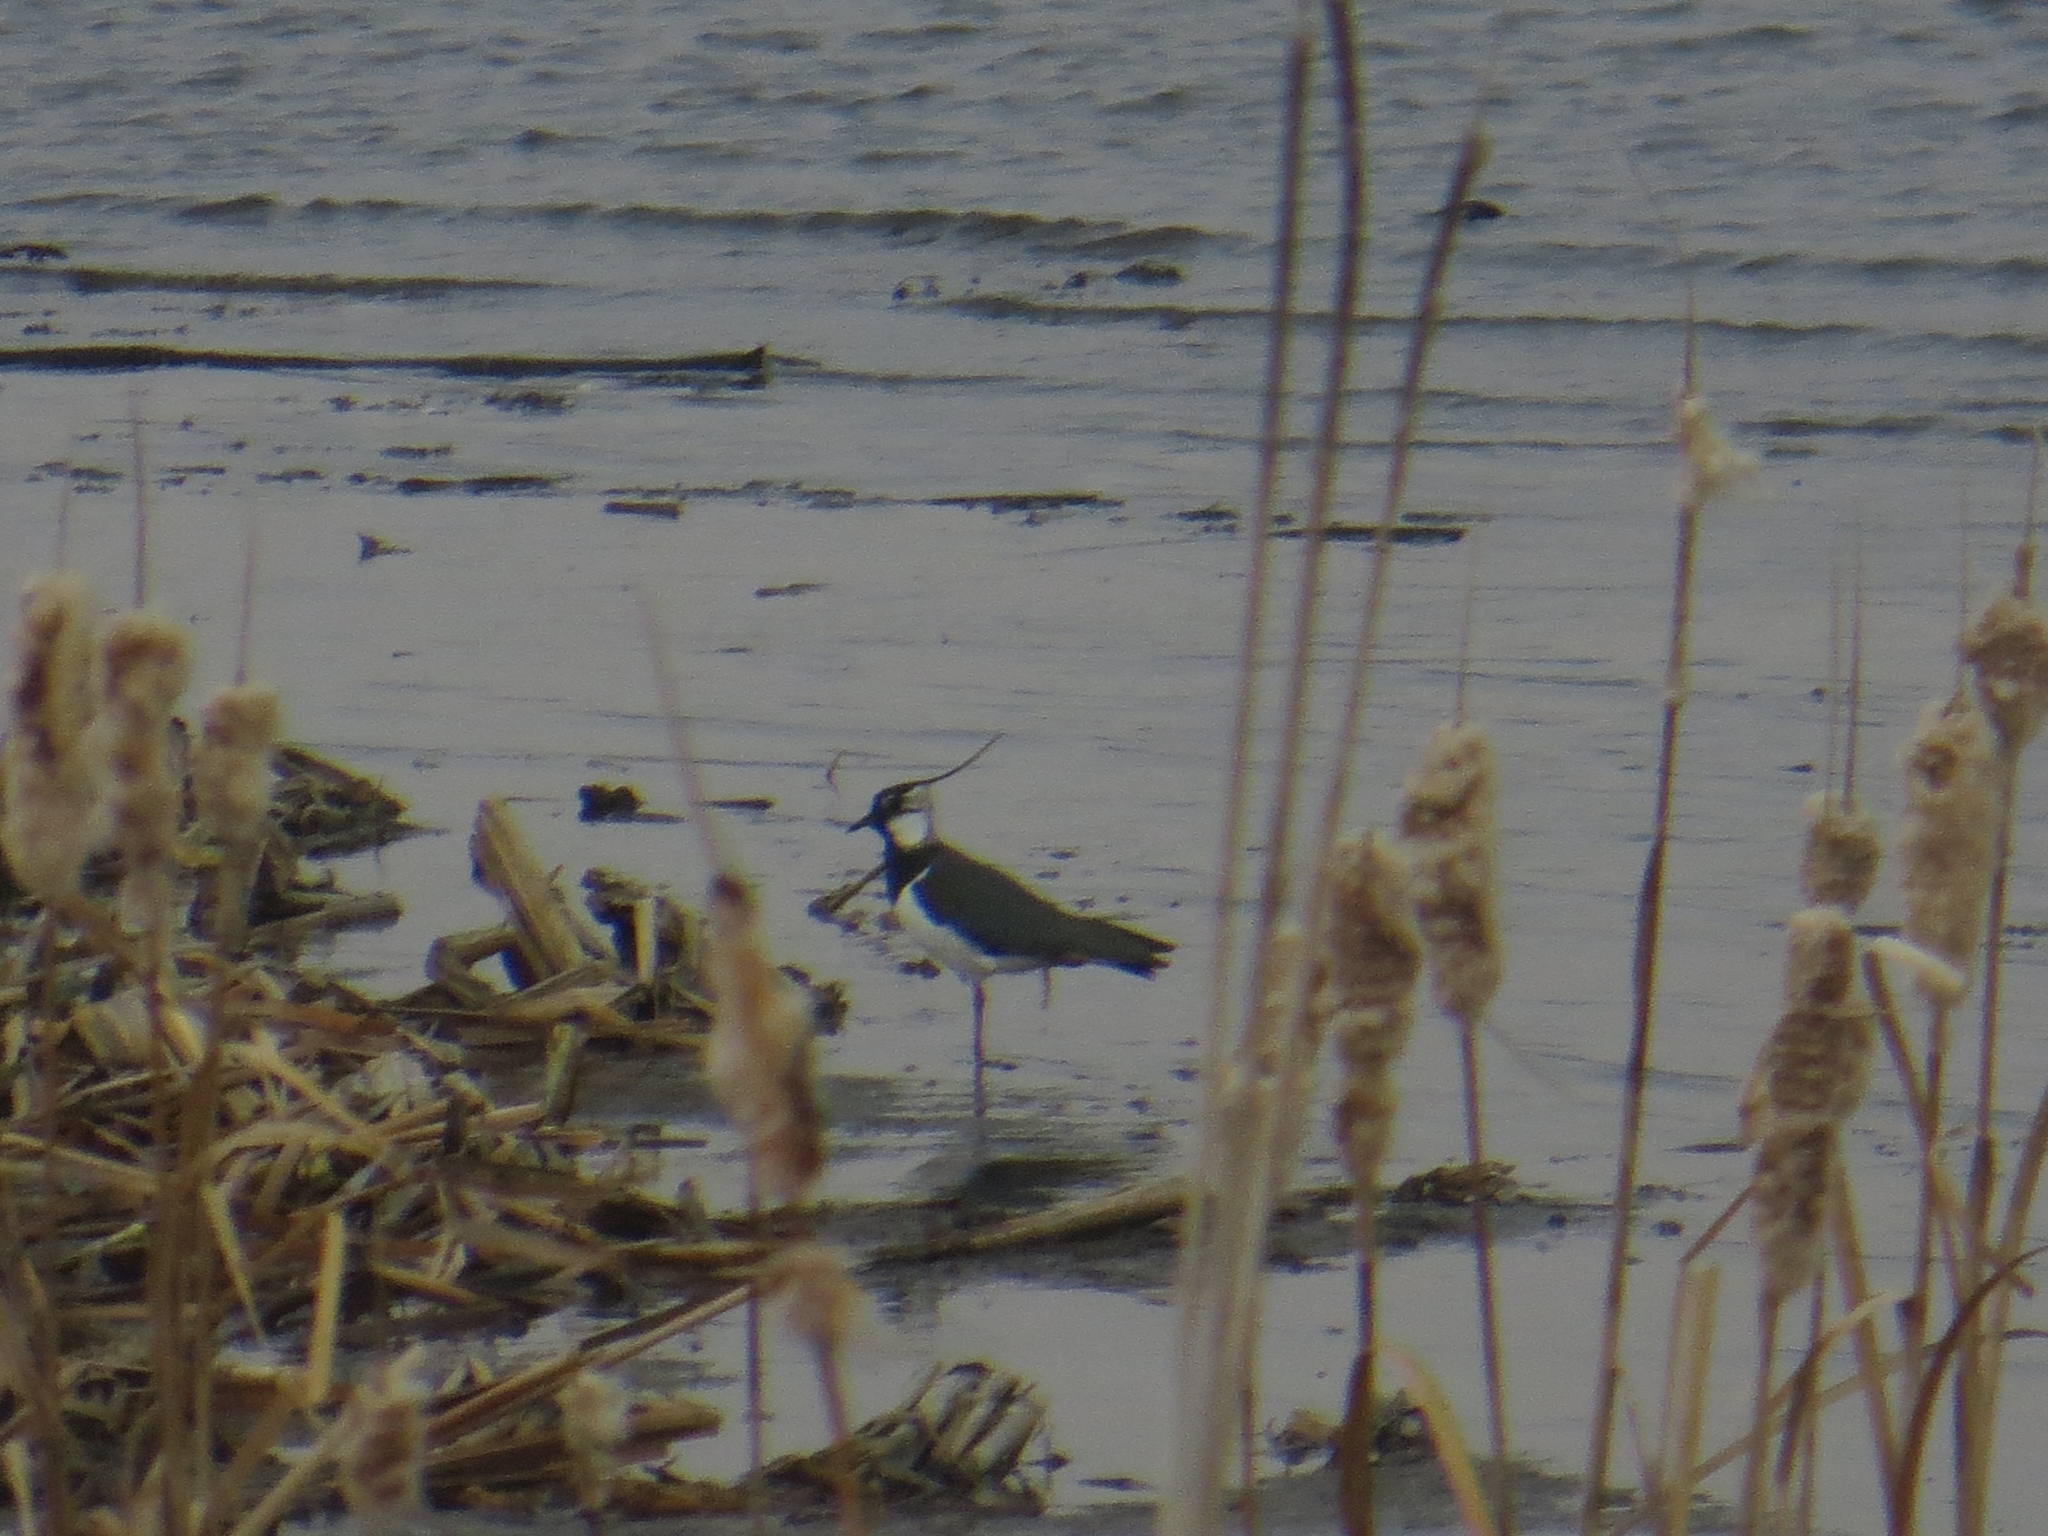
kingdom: Animalia
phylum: Chordata
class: Aves
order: Charadriiformes
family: Charadriidae
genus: Vanellus
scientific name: Vanellus vanellus
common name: Northern lapwing
